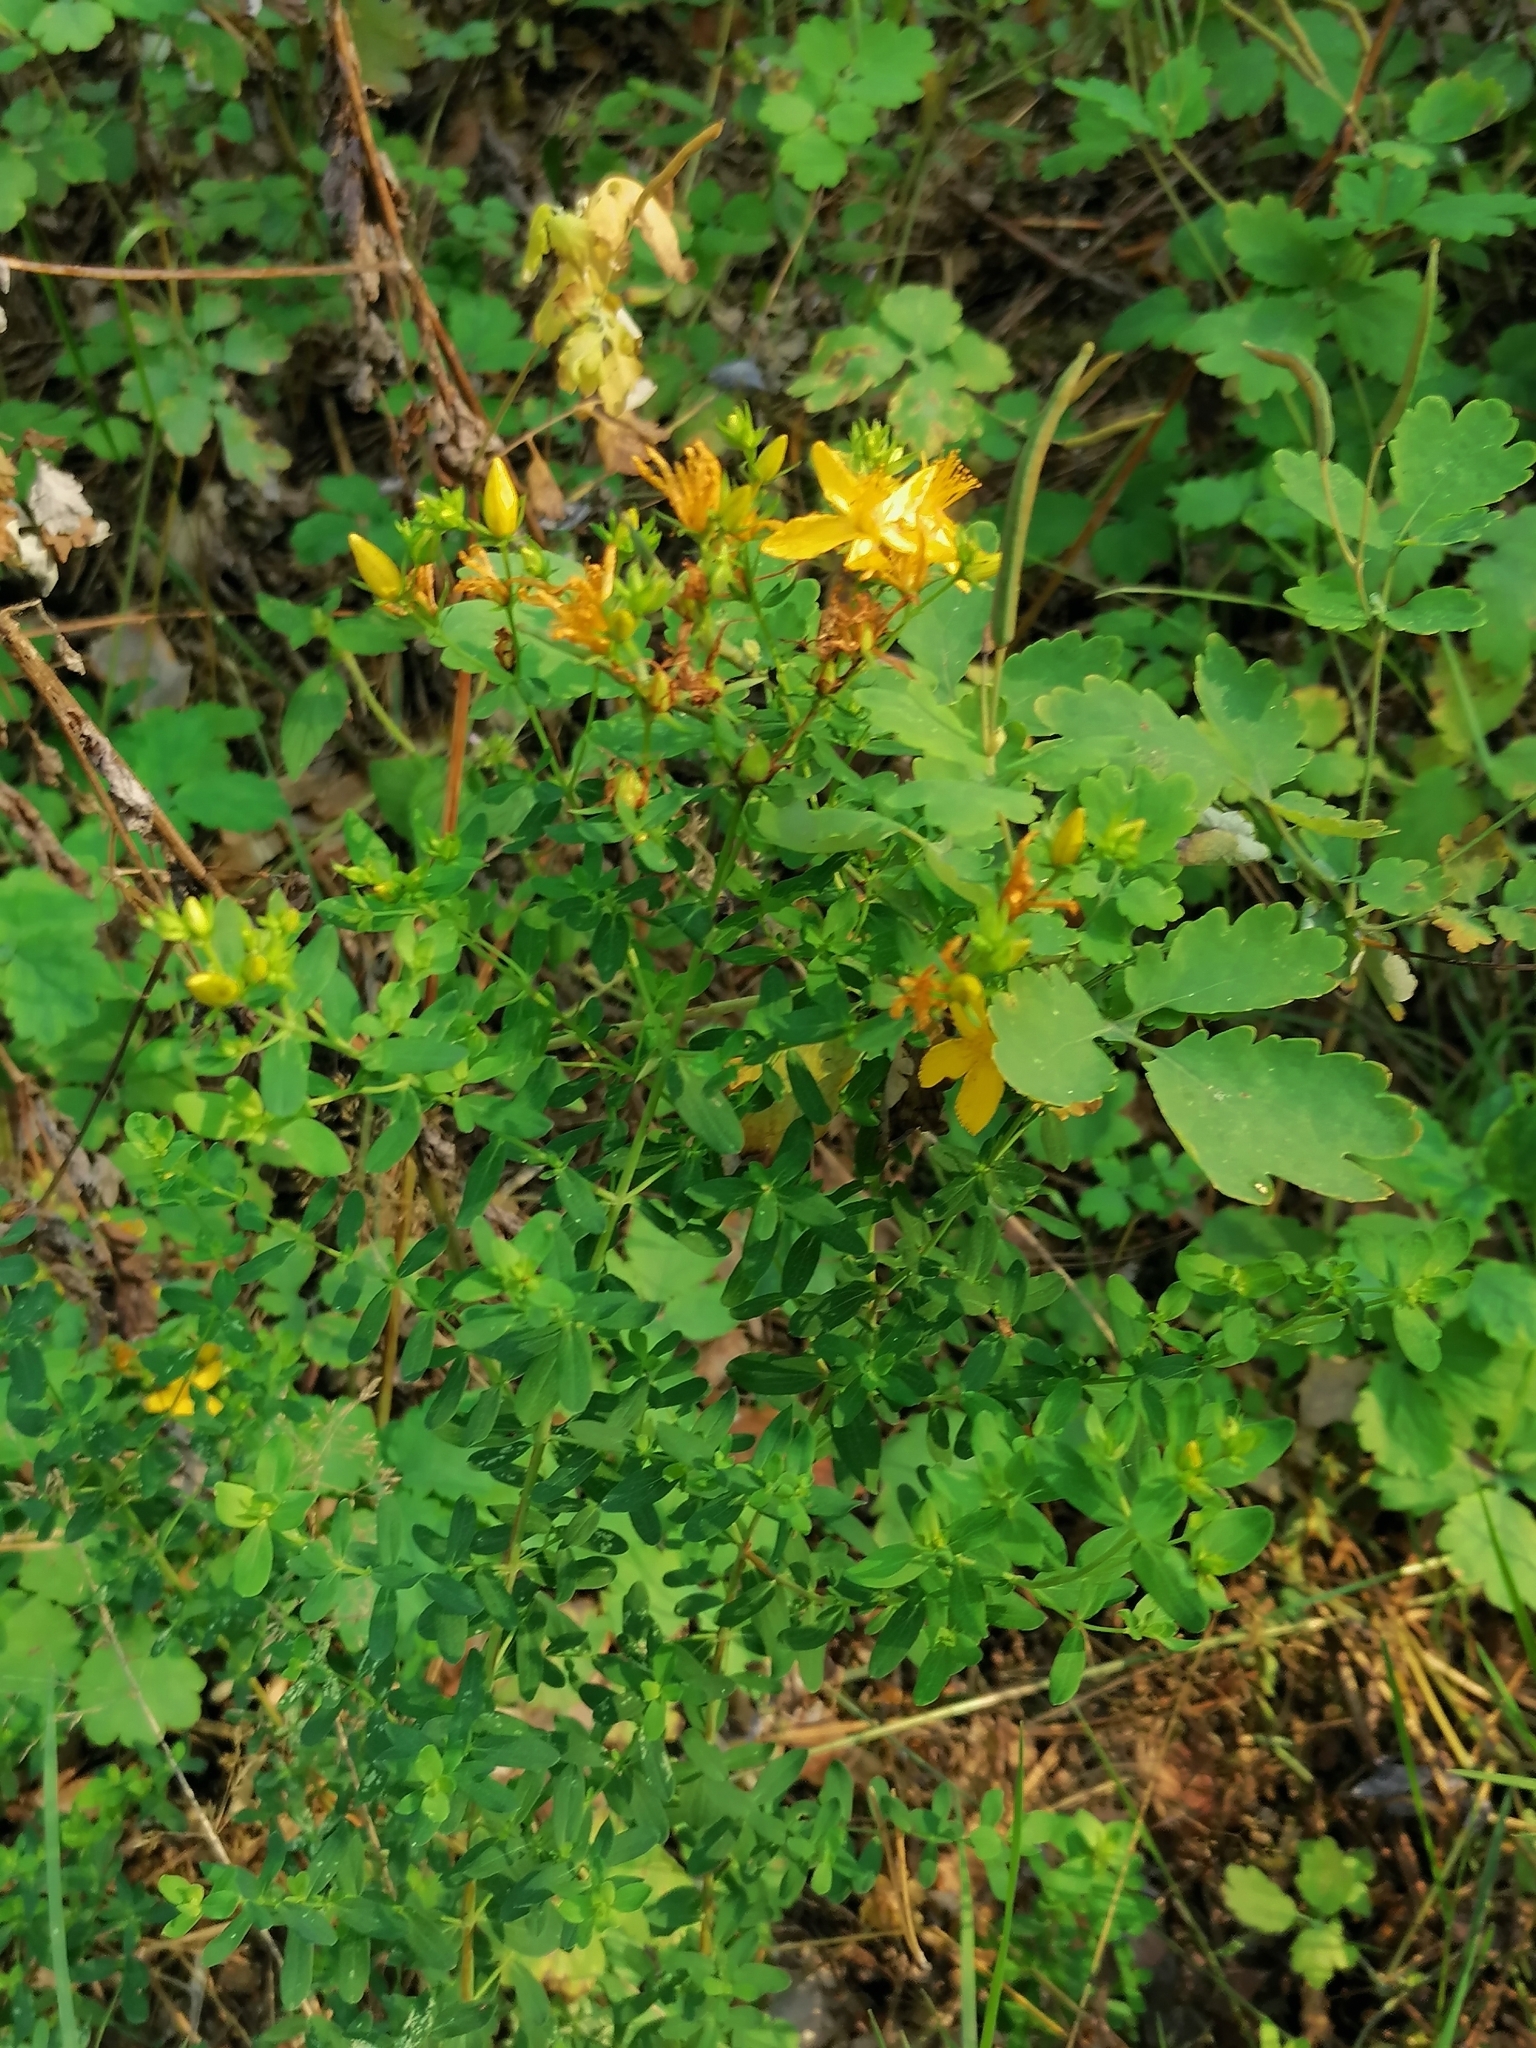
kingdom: Plantae
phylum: Tracheophyta
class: Magnoliopsida
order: Malpighiales
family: Hypericaceae
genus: Hypericum
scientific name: Hypericum perforatum
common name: Common st. johnswort
